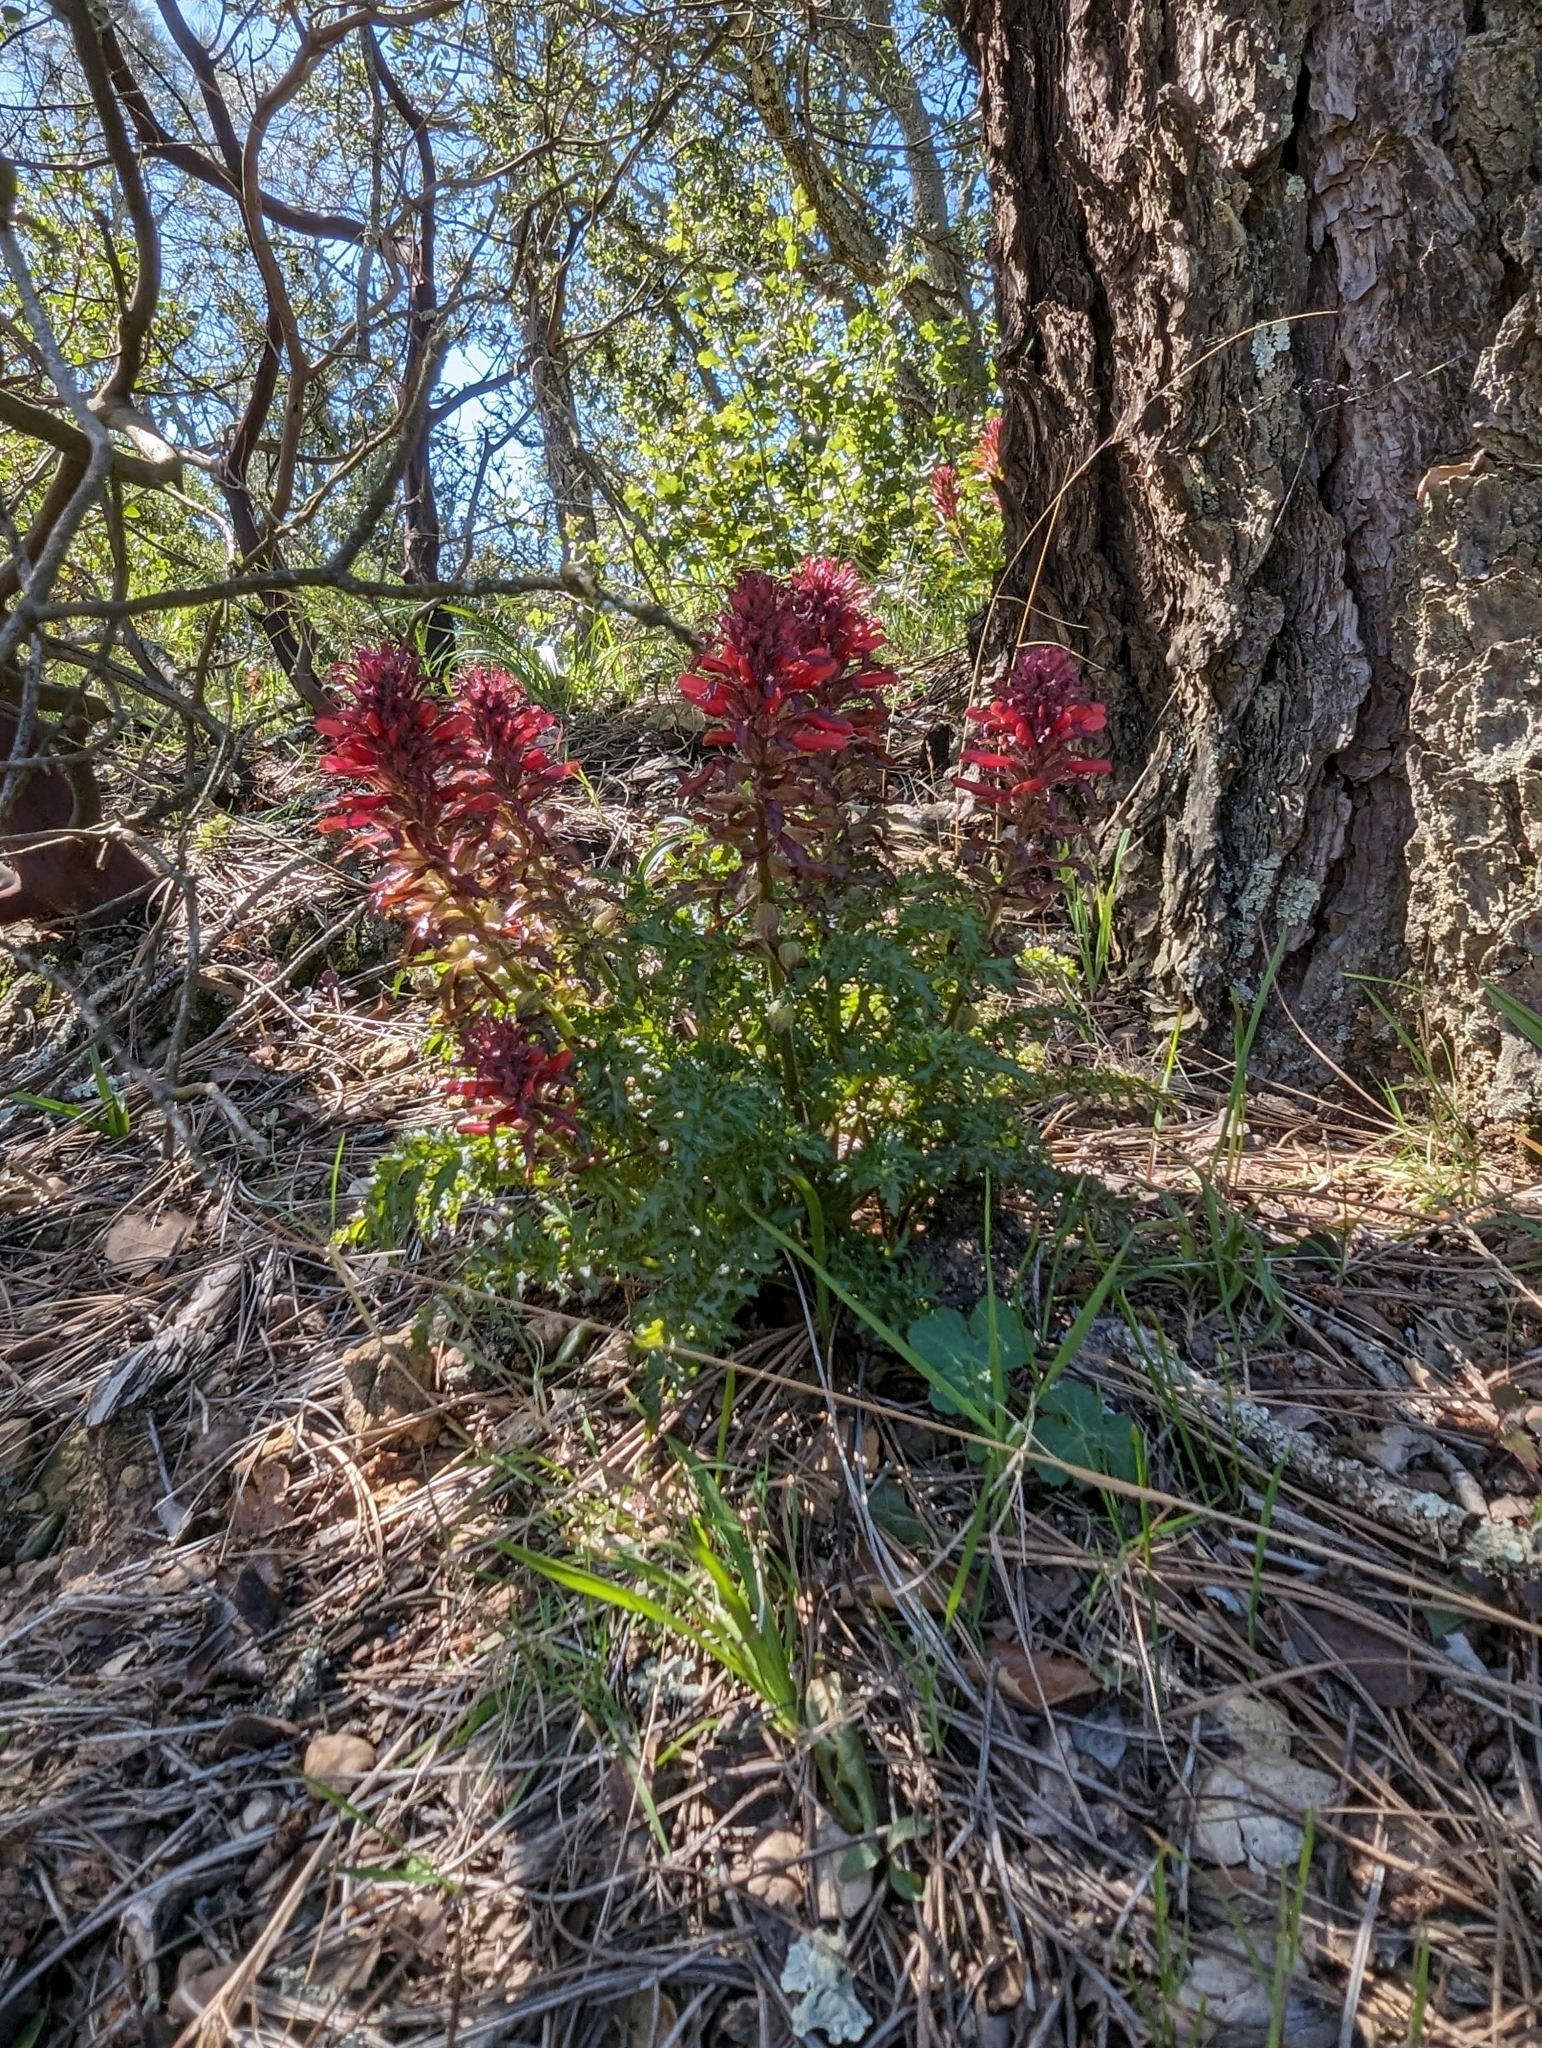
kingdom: Plantae
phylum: Tracheophyta
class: Magnoliopsida
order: Lamiales
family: Orobanchaceae
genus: Pedicularis
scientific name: Pedicularis densiflora
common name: Indian warrior
